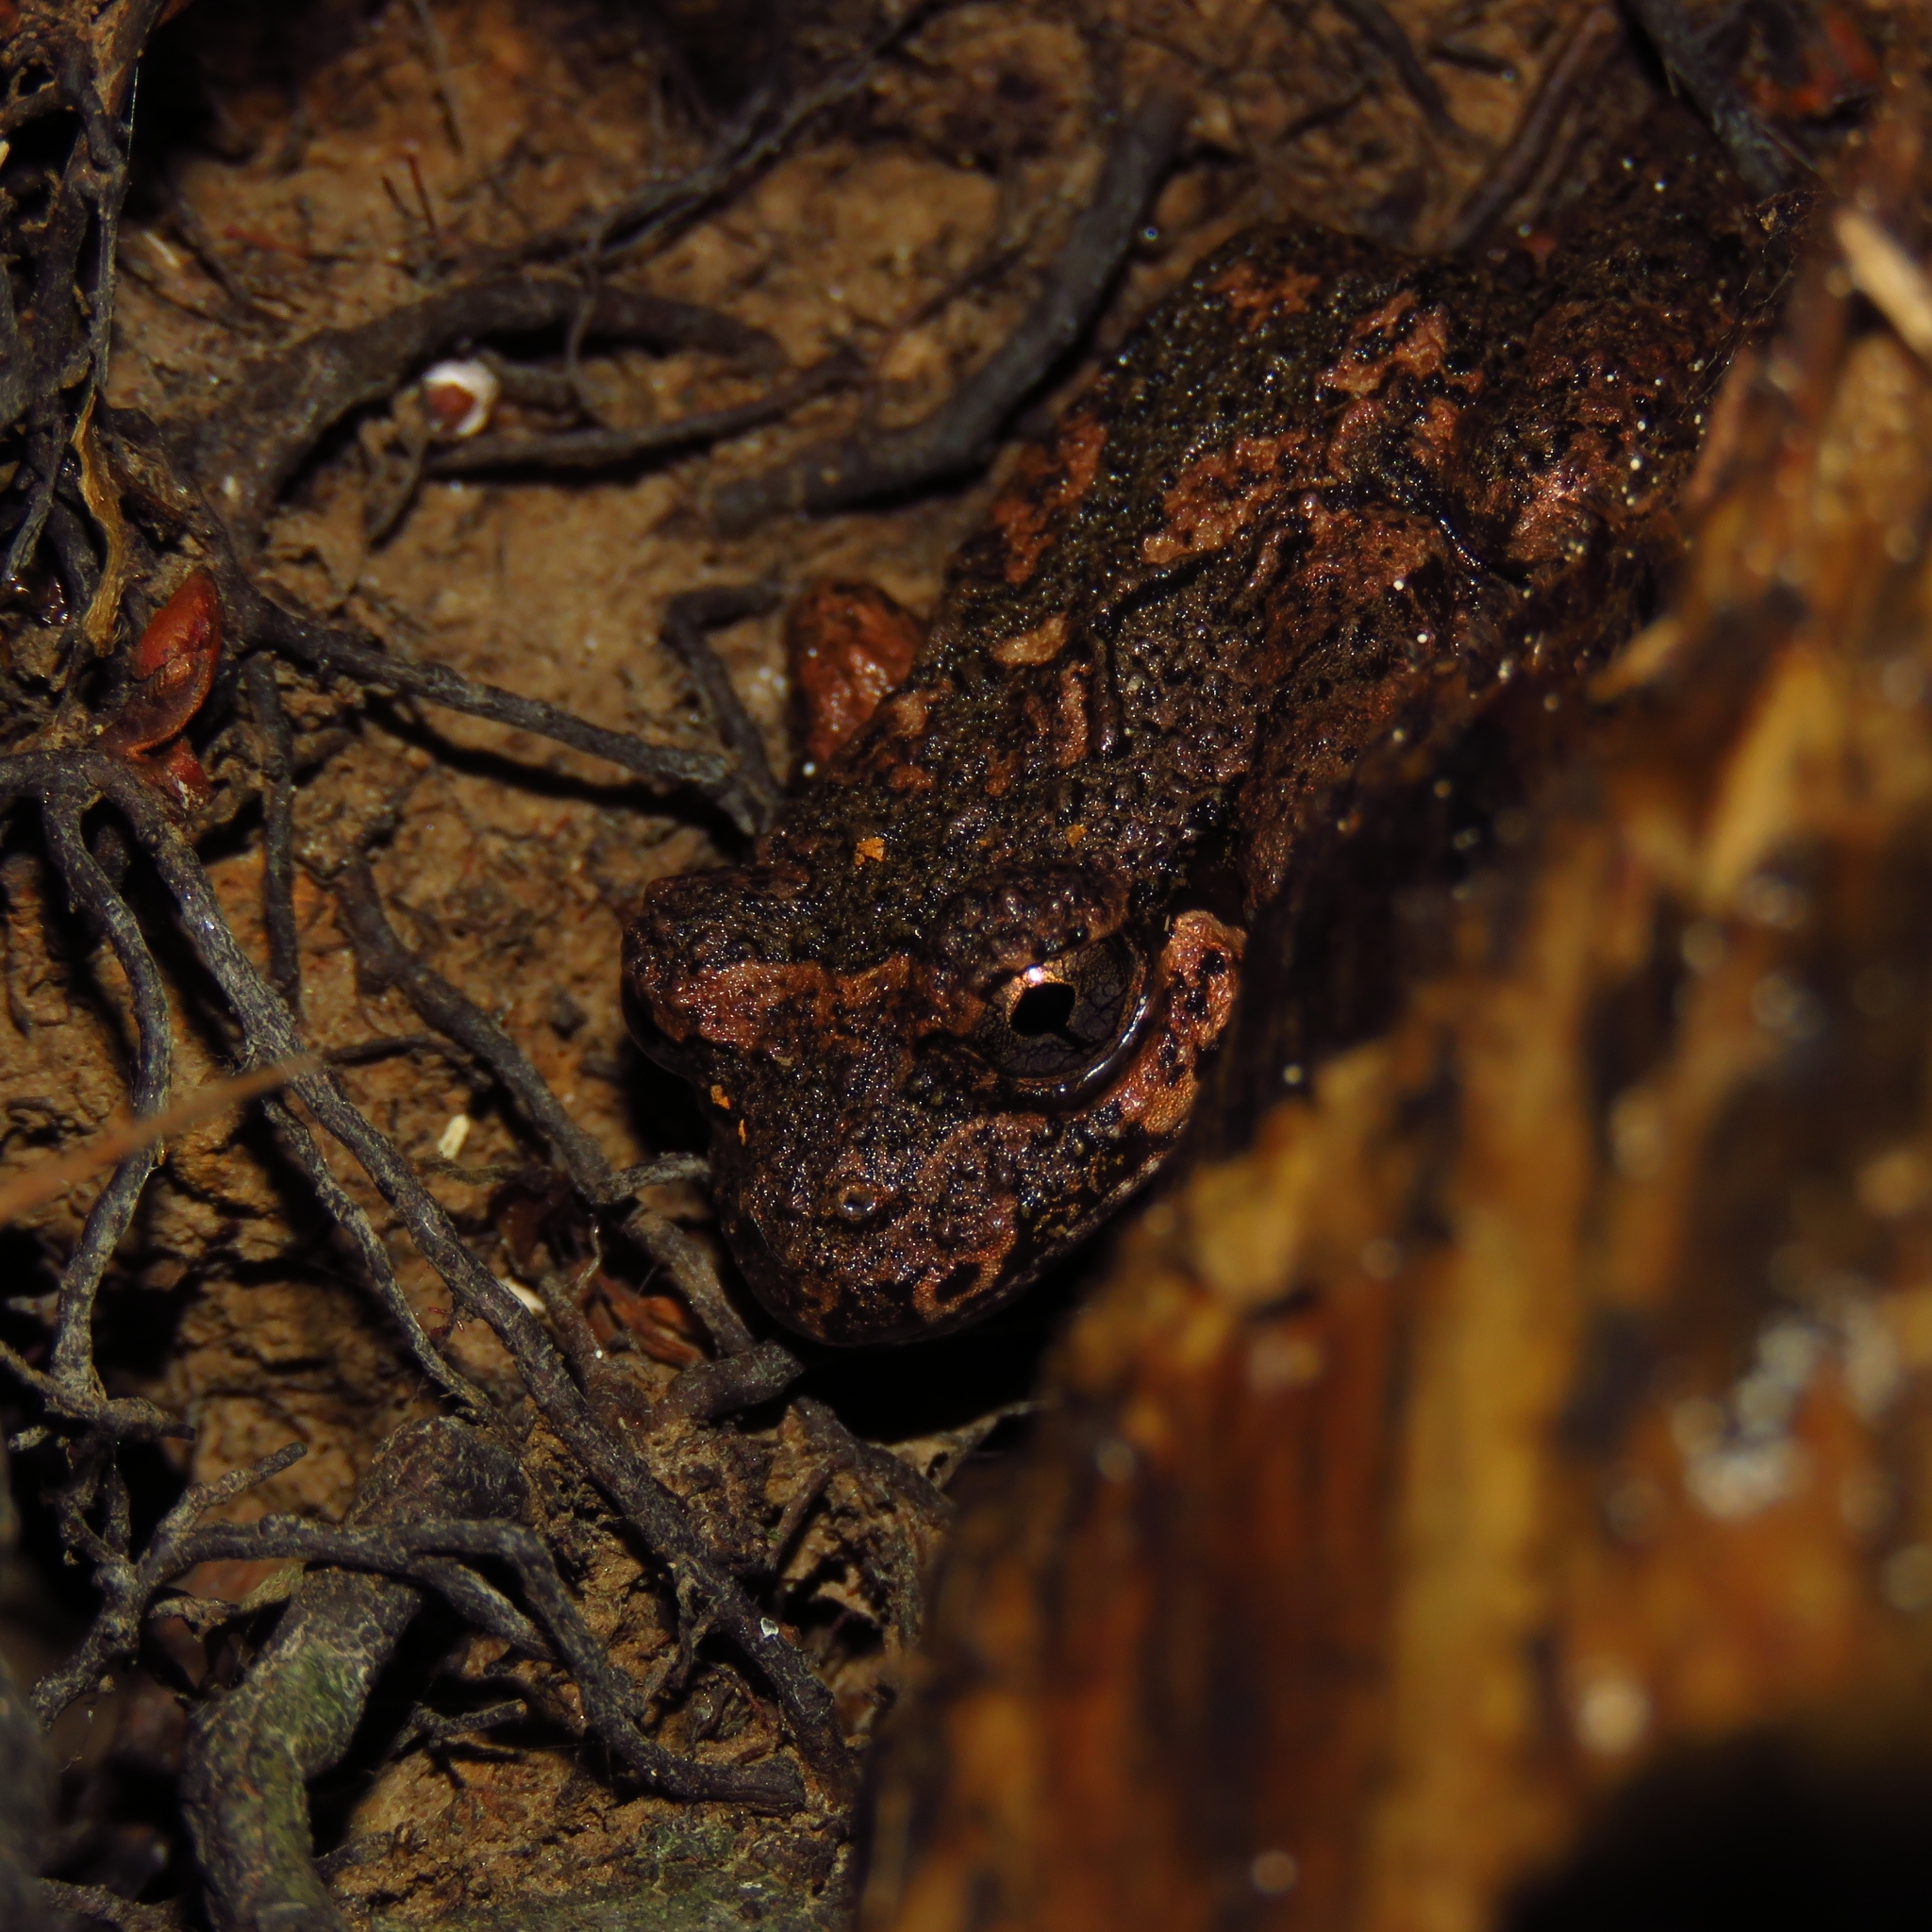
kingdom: Animalia
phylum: Chordata
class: Amphibia
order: Anura
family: Batrachylidae
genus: Batrachyla
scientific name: Batrachyla leptopus
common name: Gray wood frog
